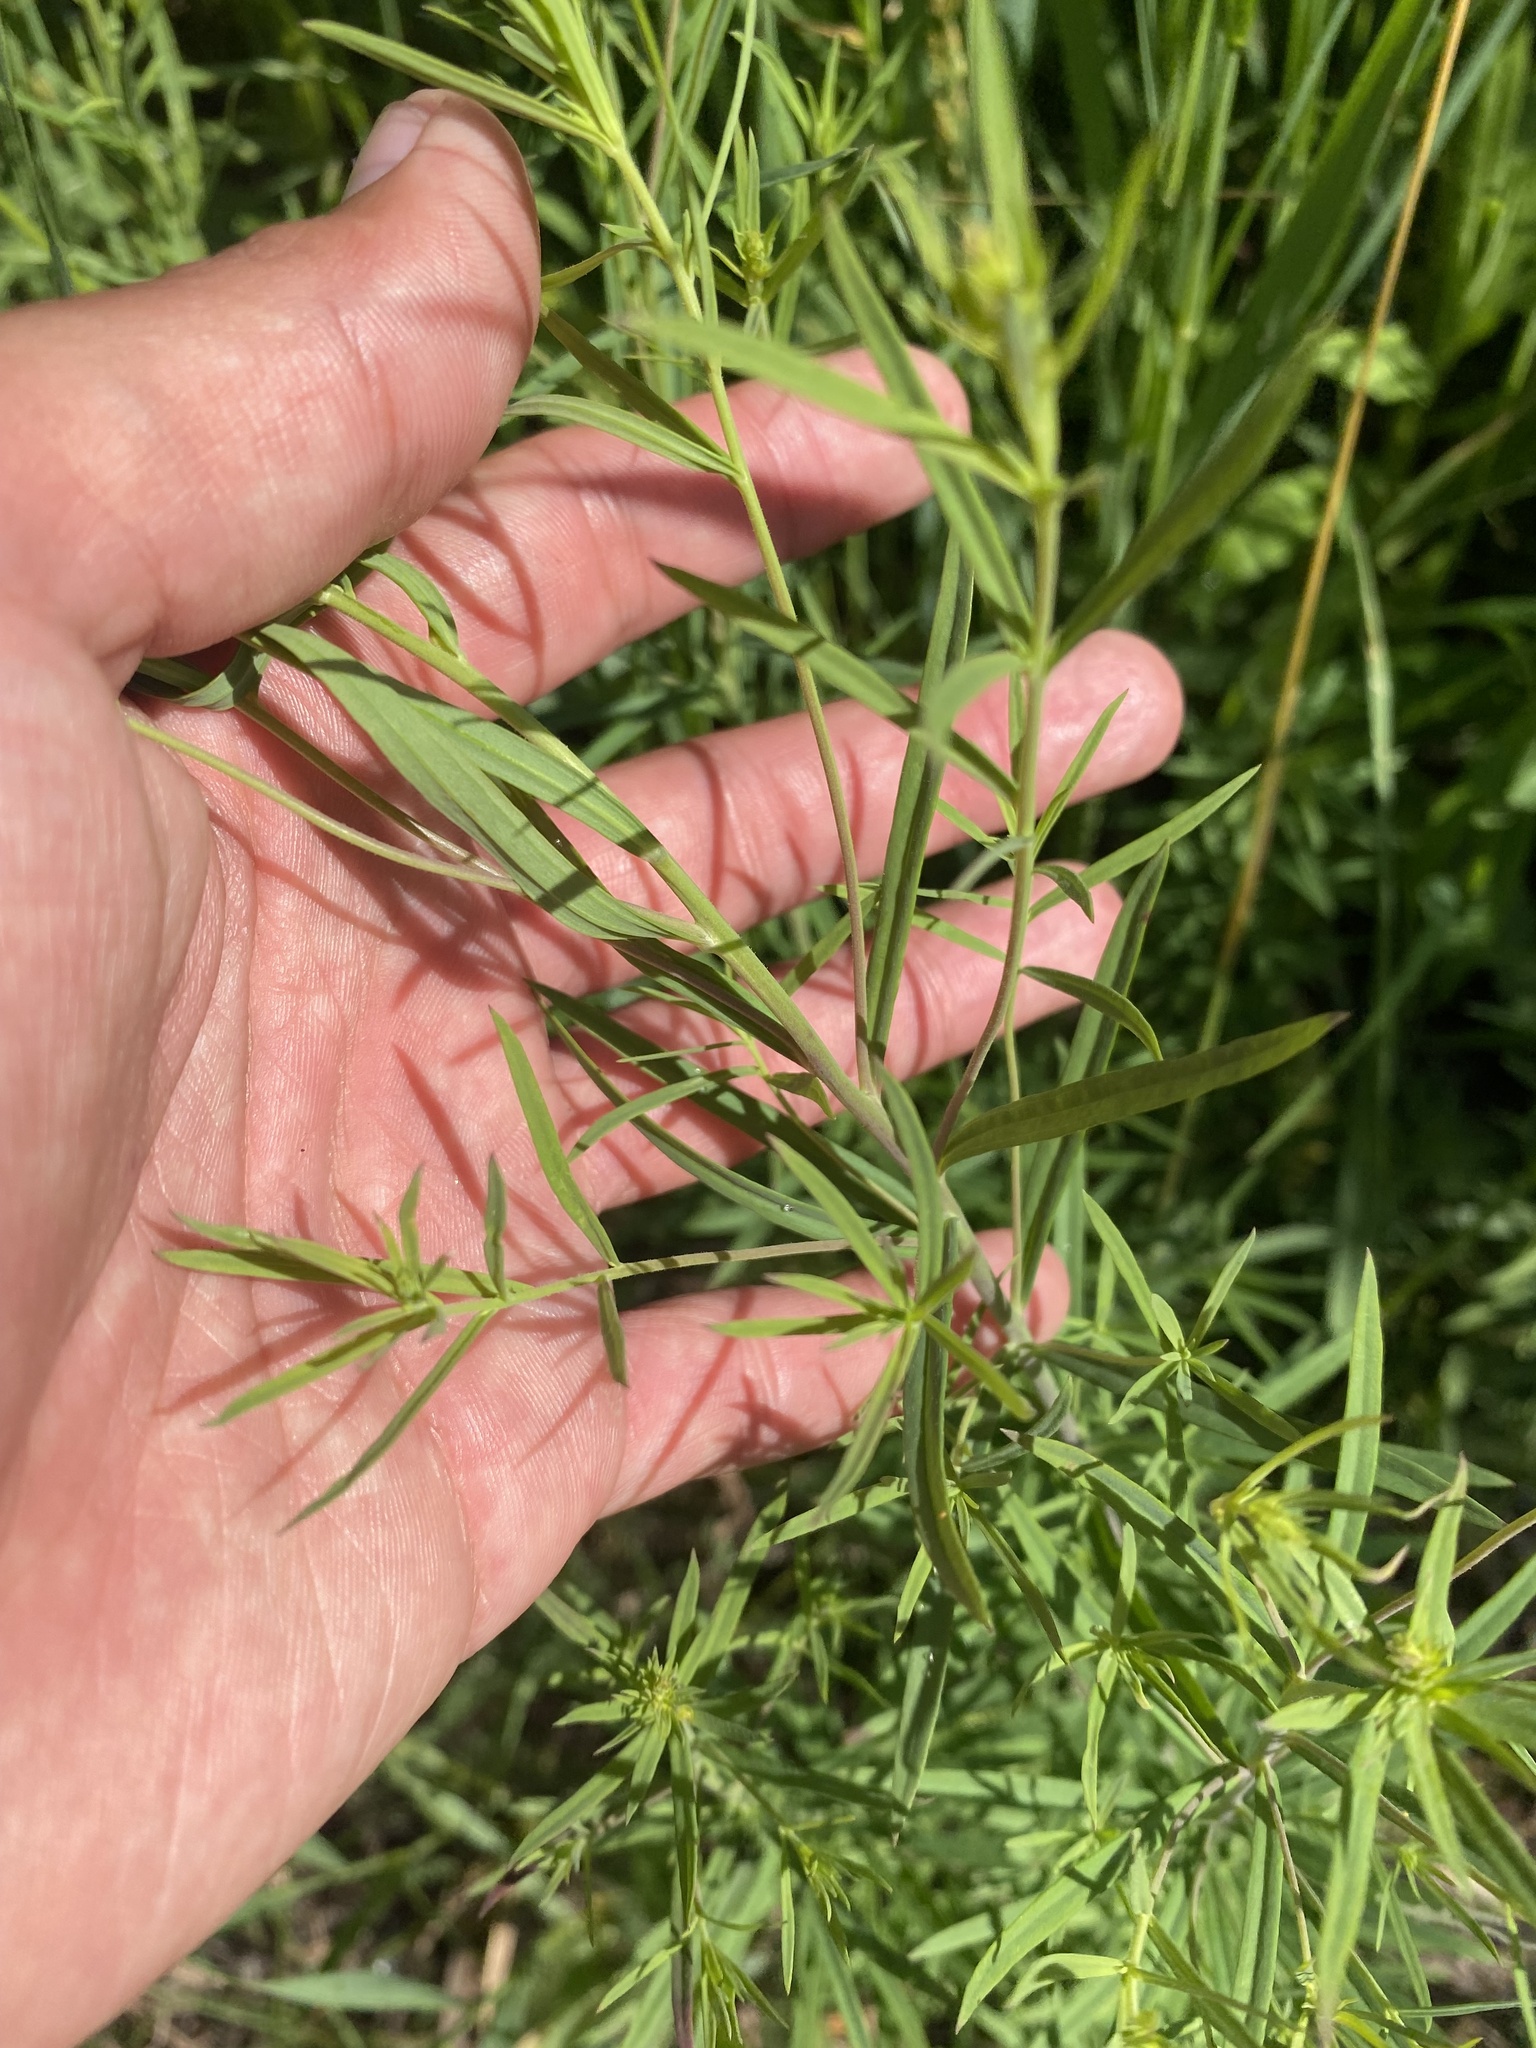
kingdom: Plantae
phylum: Tracheophyta
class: Magnoliopsida
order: Lamiales
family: Plantaginaceae
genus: Linaria
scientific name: Linaria vulgaris
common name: Butter and eggs
